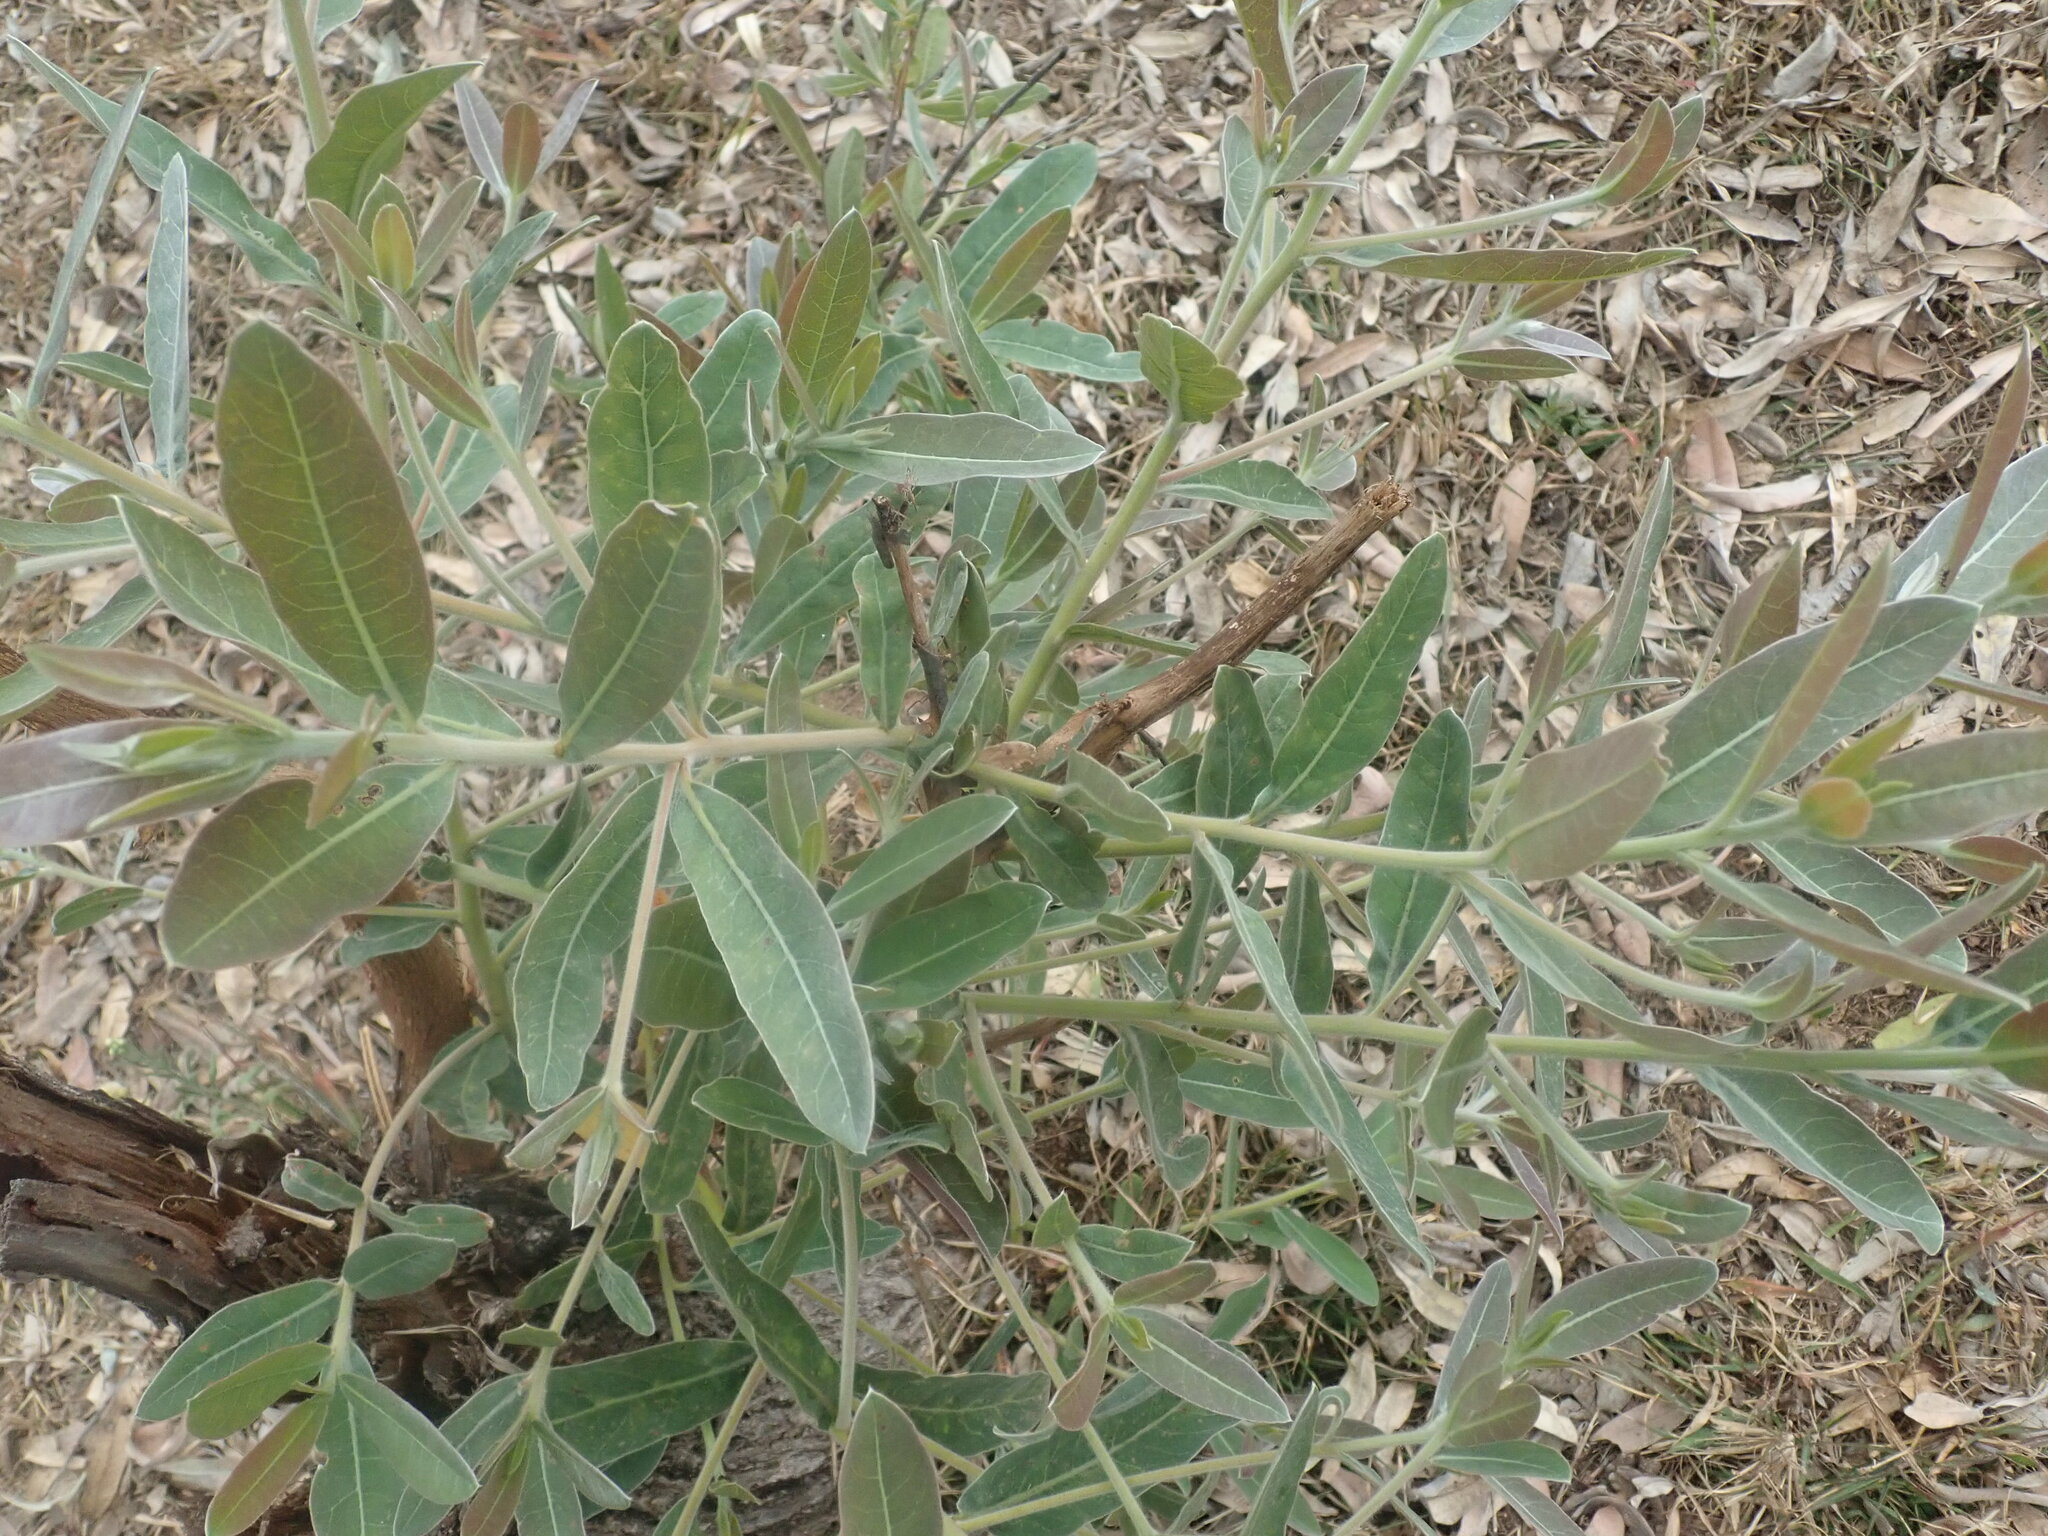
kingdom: Plantae
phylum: Tracheophyta
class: Magnoliopsida
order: Myrtales
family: Combretaceae
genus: Terminalia
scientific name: Terminalia sericea
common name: Clusterleaf
